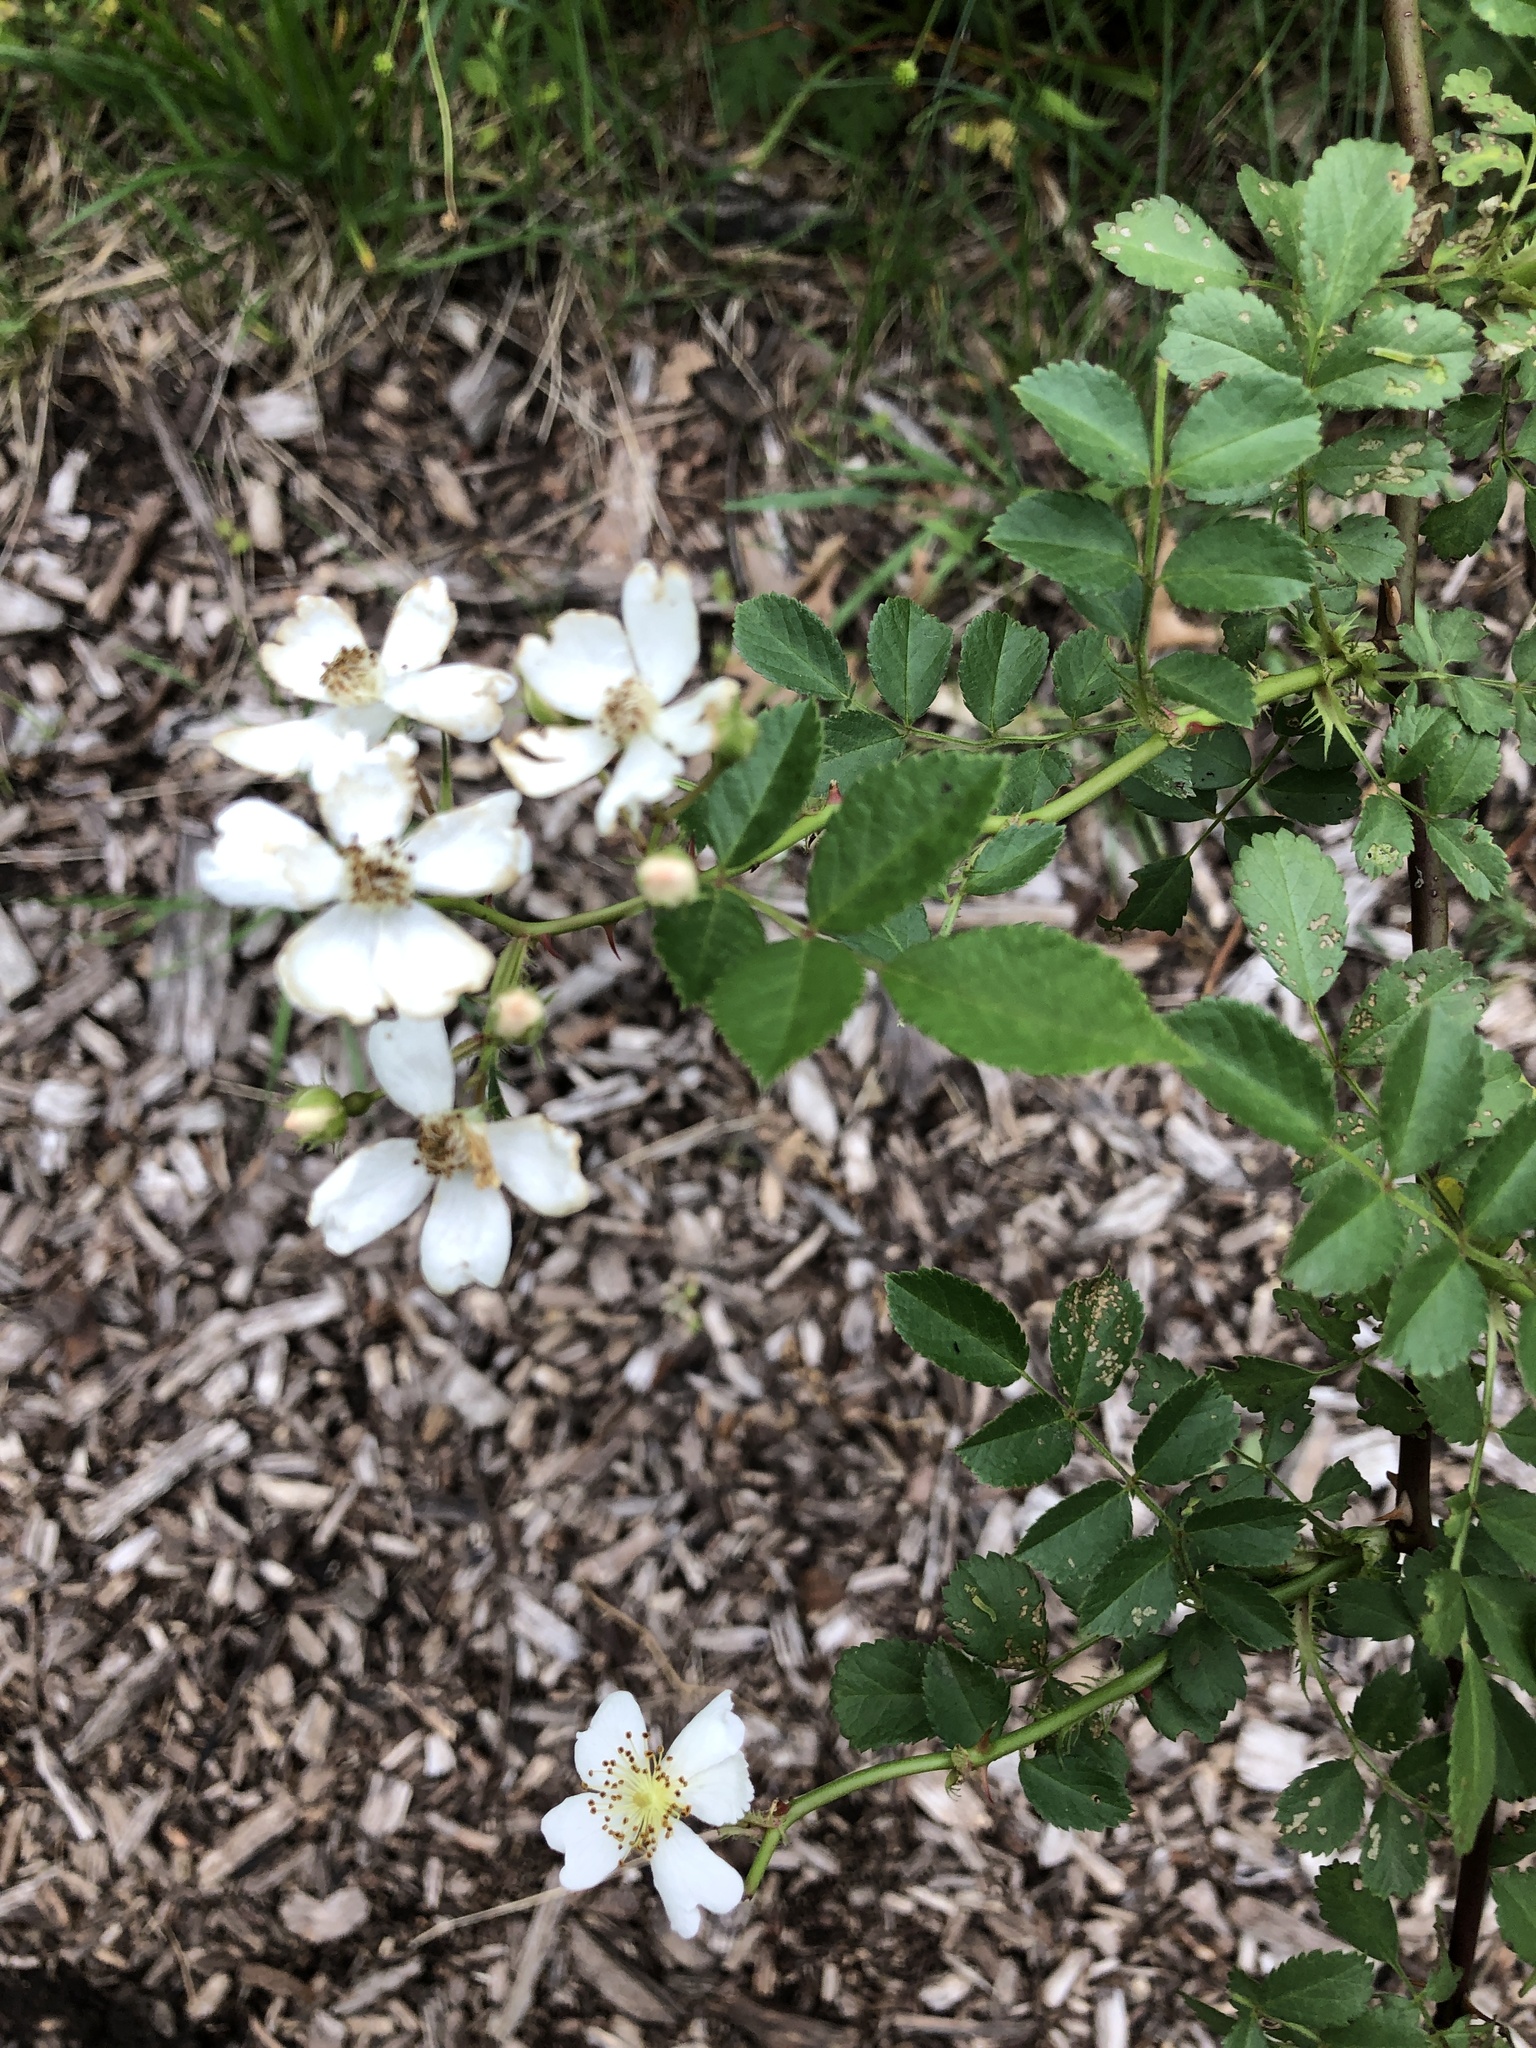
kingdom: Plantae
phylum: Tracheophyta
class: Magnoliopsida
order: Rosales
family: Rosaceae
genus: Rosa
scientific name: Rosa multiflora
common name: Multiflora rose
